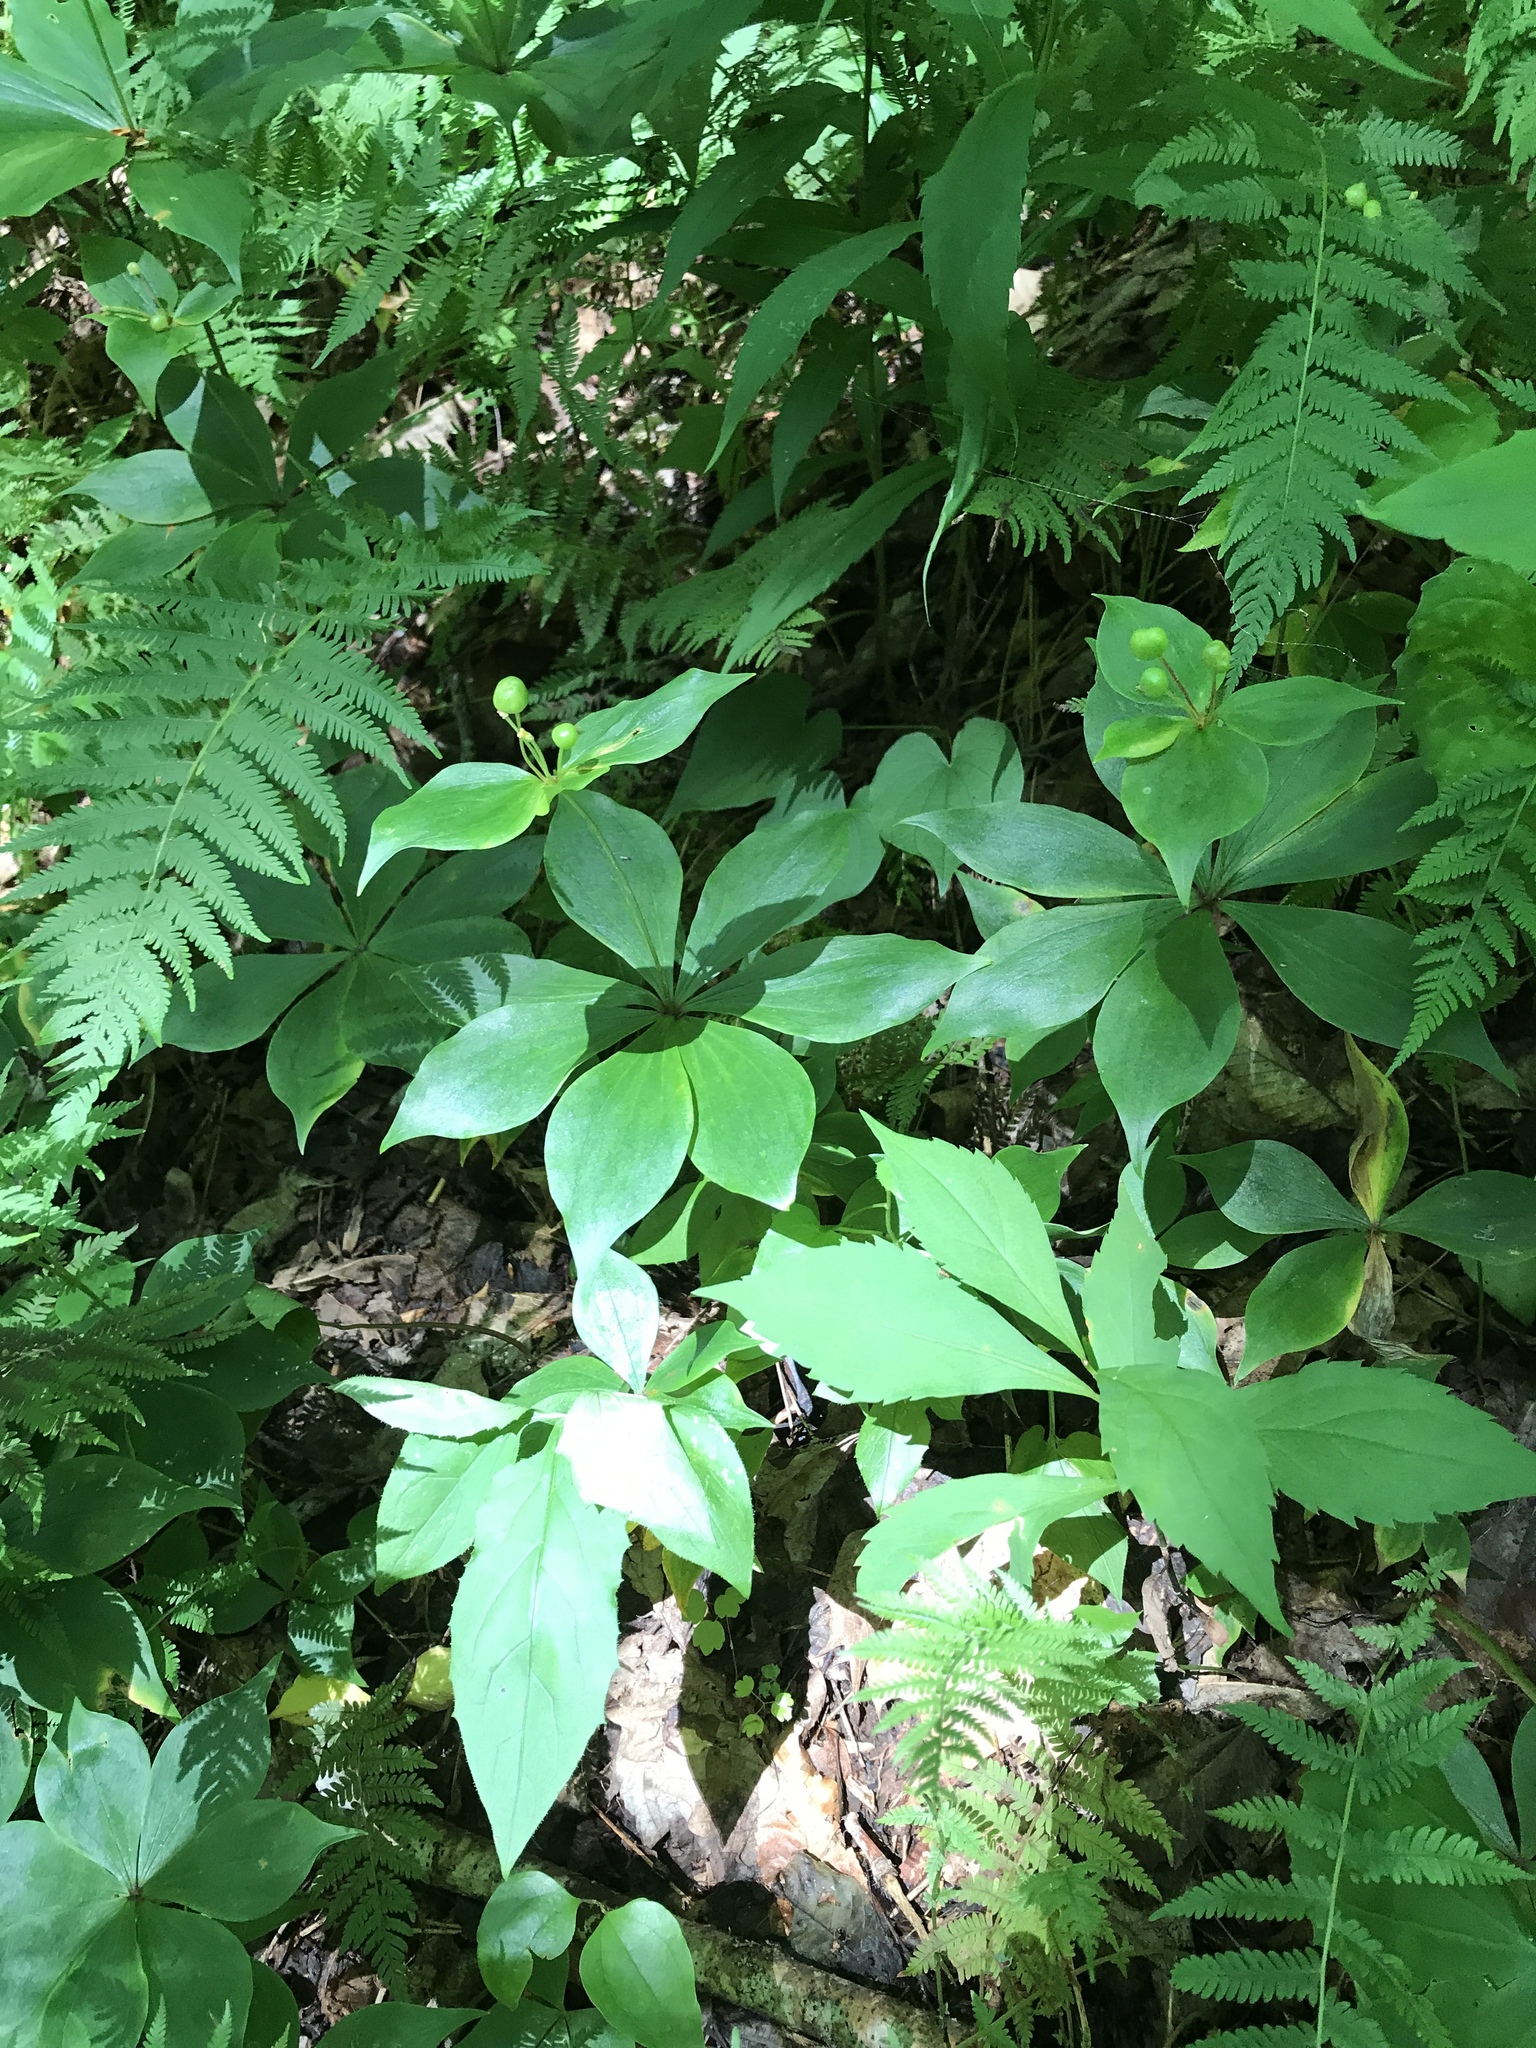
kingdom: Plantae
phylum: Tracheophyta
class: Liliopsida
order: Liliales
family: Liliaceae
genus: Medeola
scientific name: Medeola virginiana
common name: Indian cucumber-root
